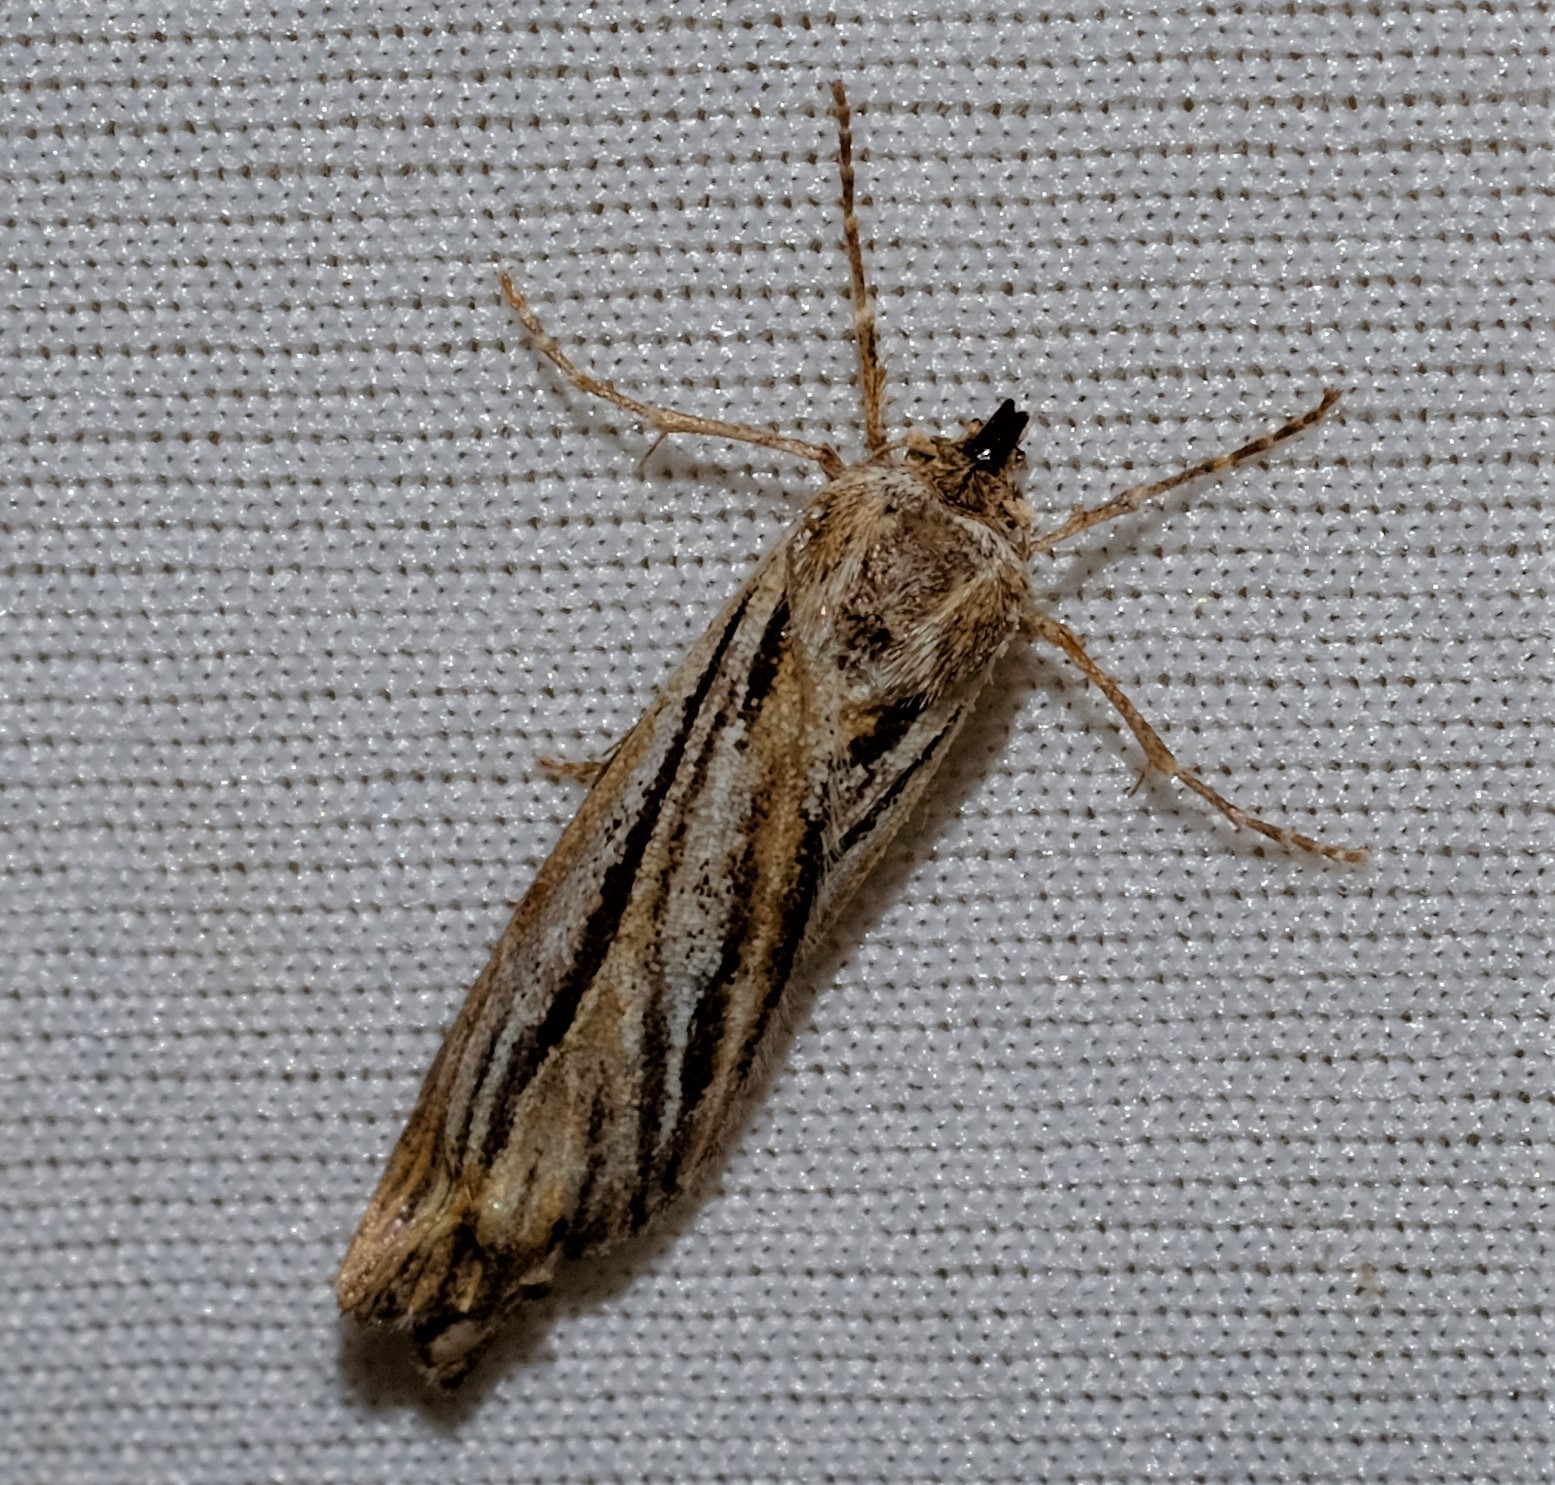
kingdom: Animalia
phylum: Arthropoda
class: Insecta
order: Lepidoptera
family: Geometridae
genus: Ciampa
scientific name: Ciampa arietaria
